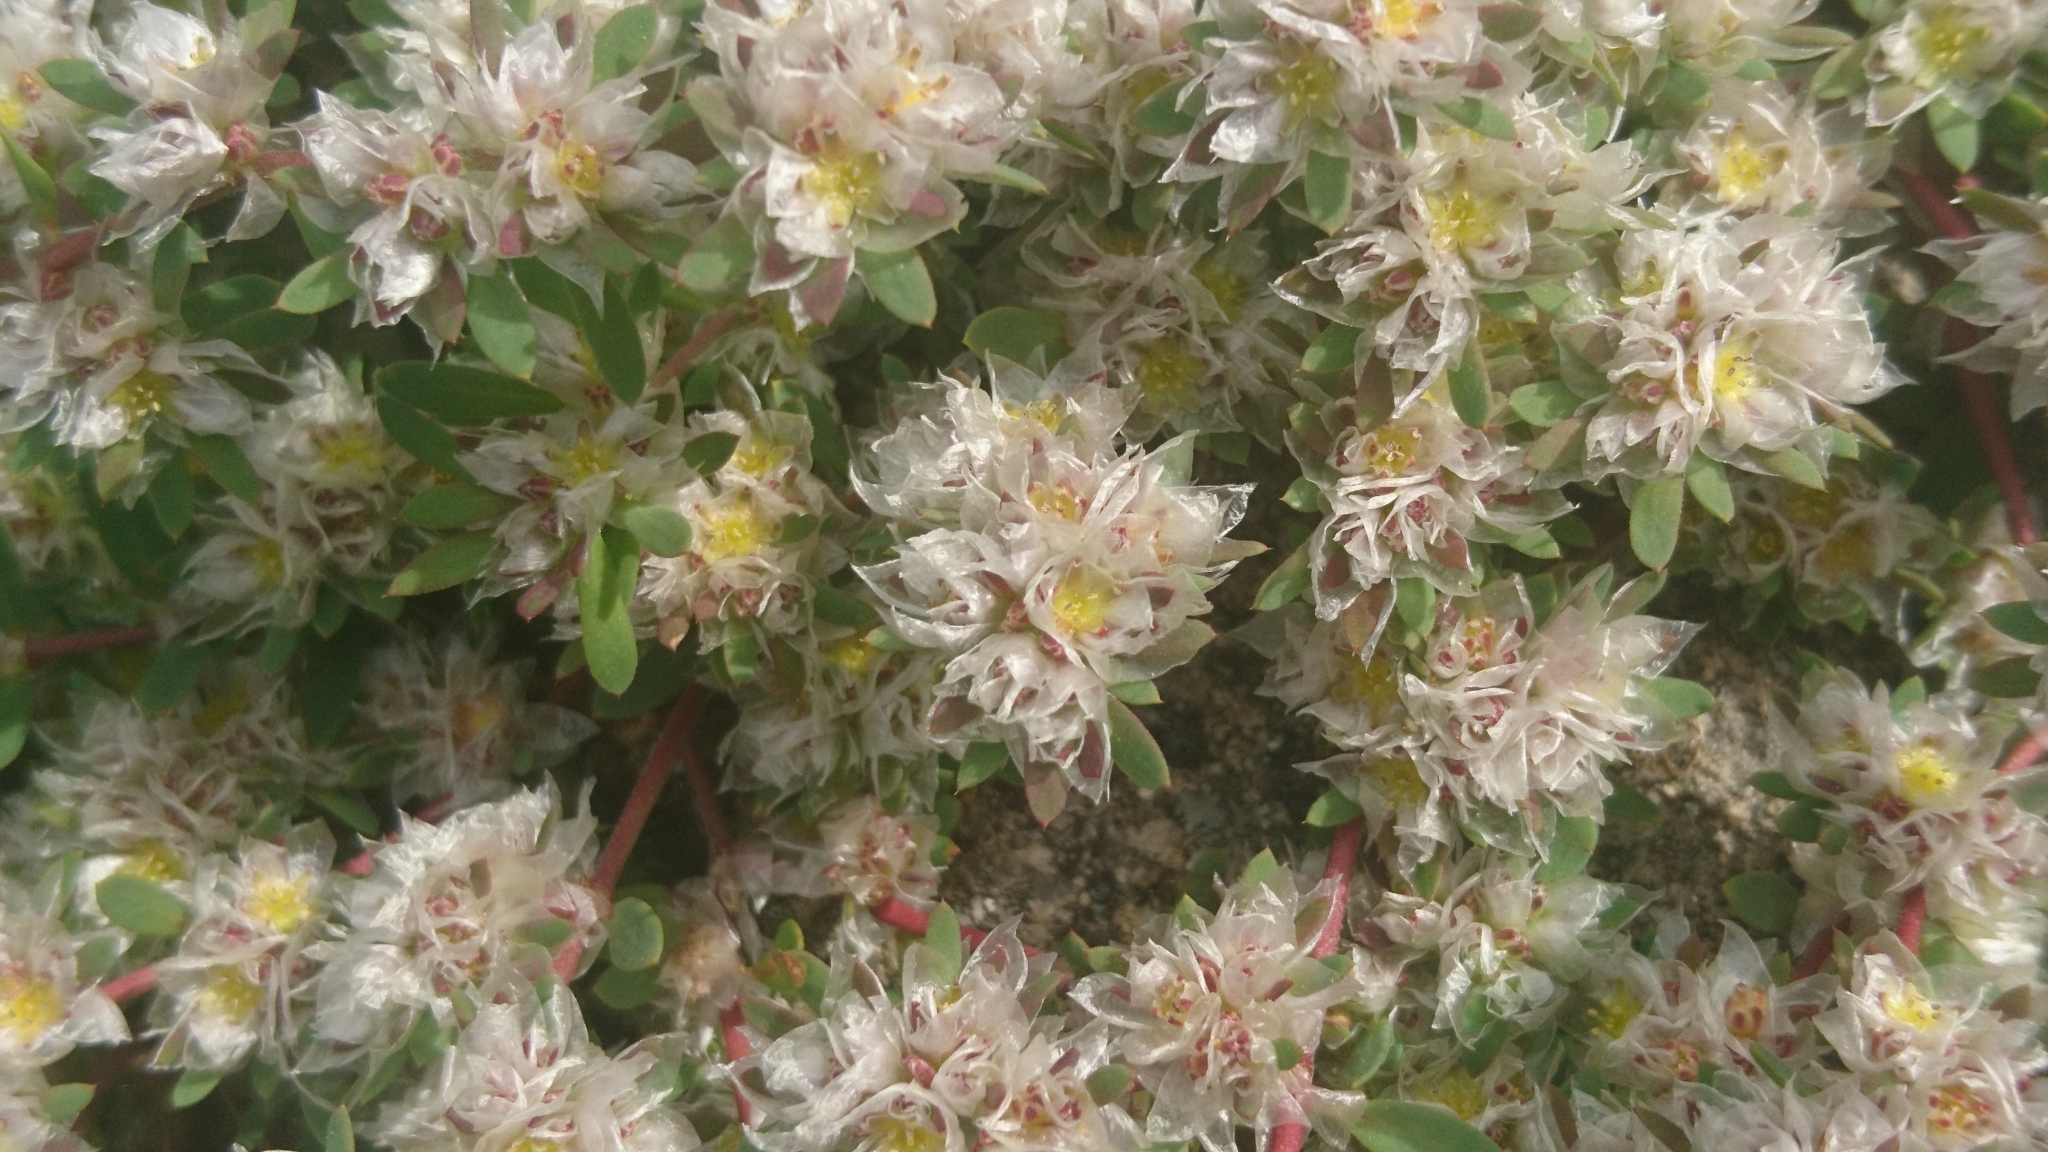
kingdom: Plantae
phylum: Tracheophyta
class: Magnoliopsida
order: Caryophyllales
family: Caryophyllaceae
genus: Paronychia
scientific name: Paronychia argentea
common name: Silver nailroot
